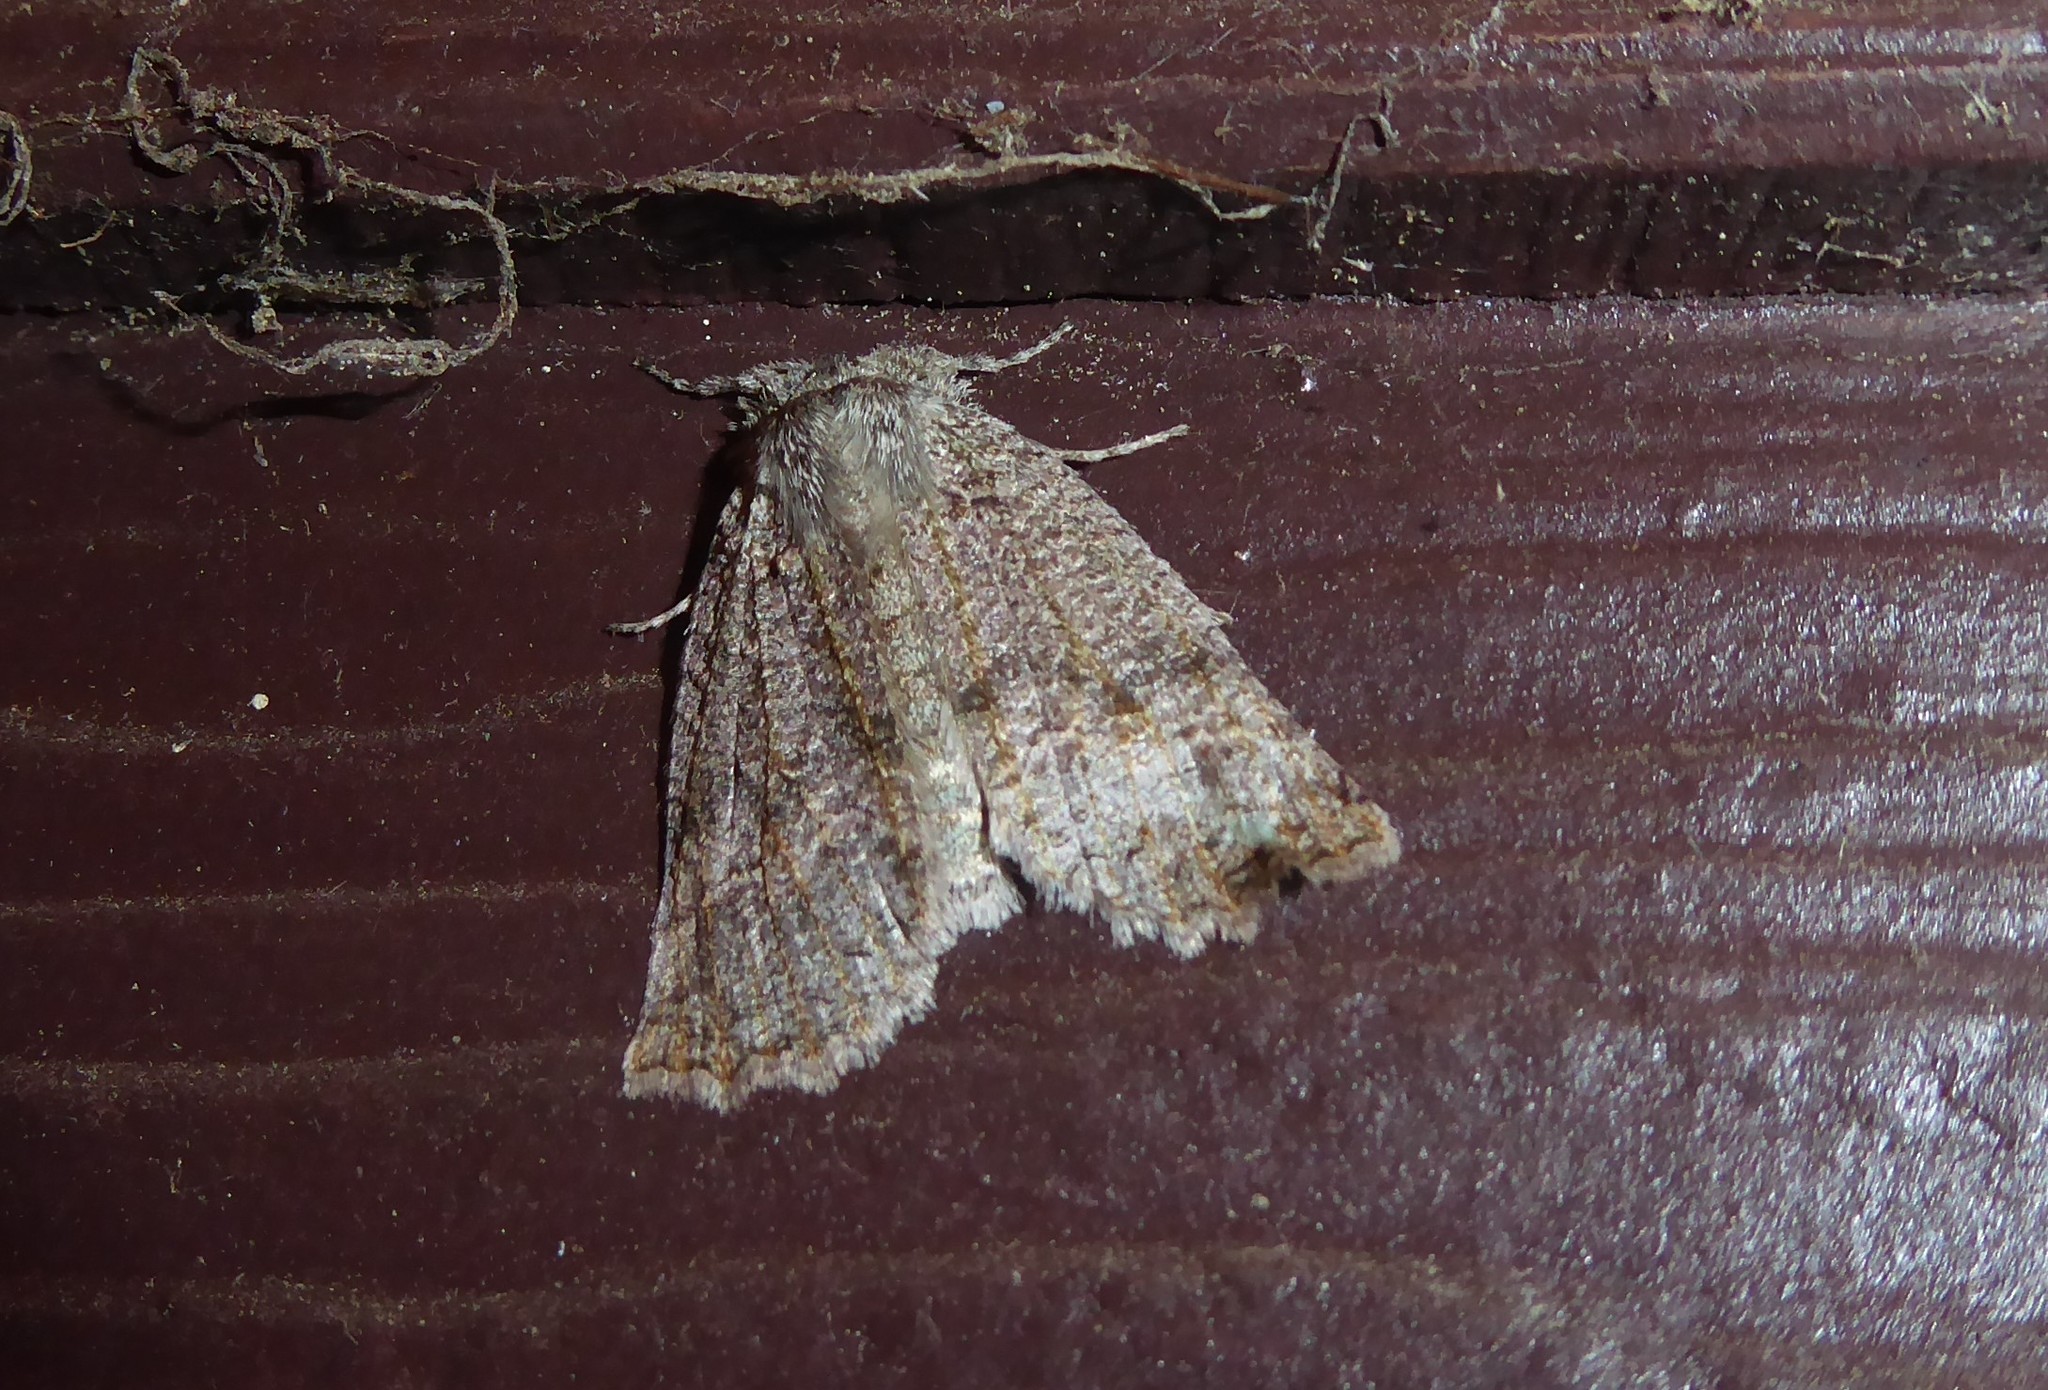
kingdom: Animalia
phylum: Arthropoda
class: Insecta
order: Lepidoptera
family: Geometridae
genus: Declana
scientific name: Declana floccosa
